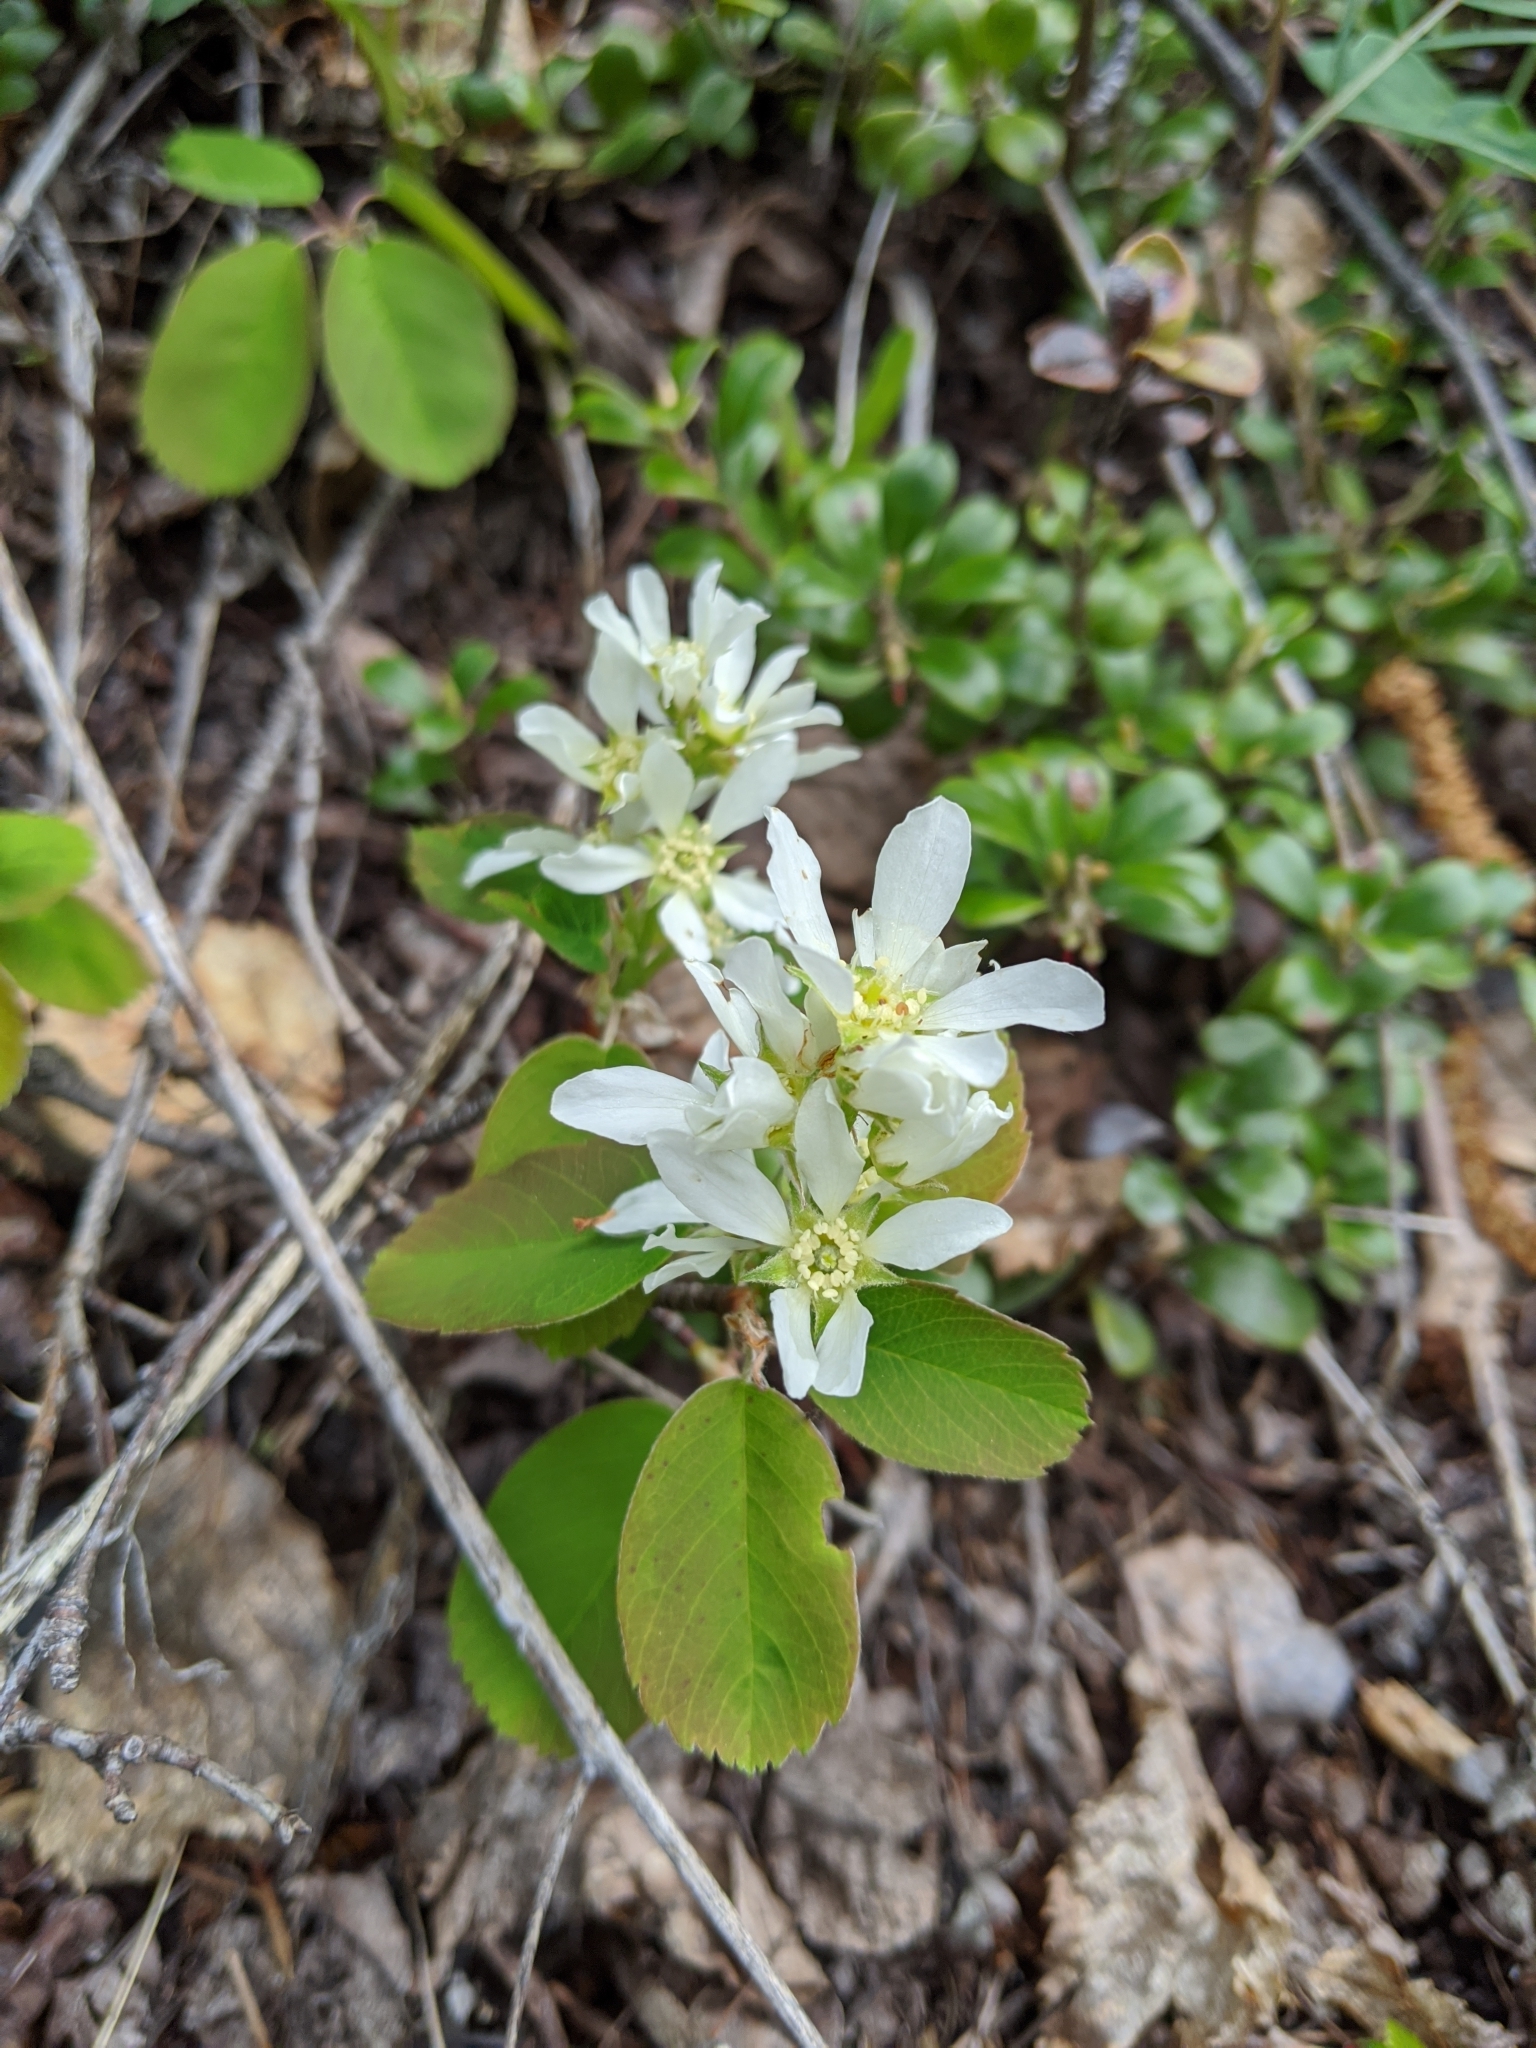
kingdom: Plantae
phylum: Tracheophyta
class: Magnoliopsida
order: Rosales
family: Rosaceae
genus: Amelanchier
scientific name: Amelanchier alnifolia
